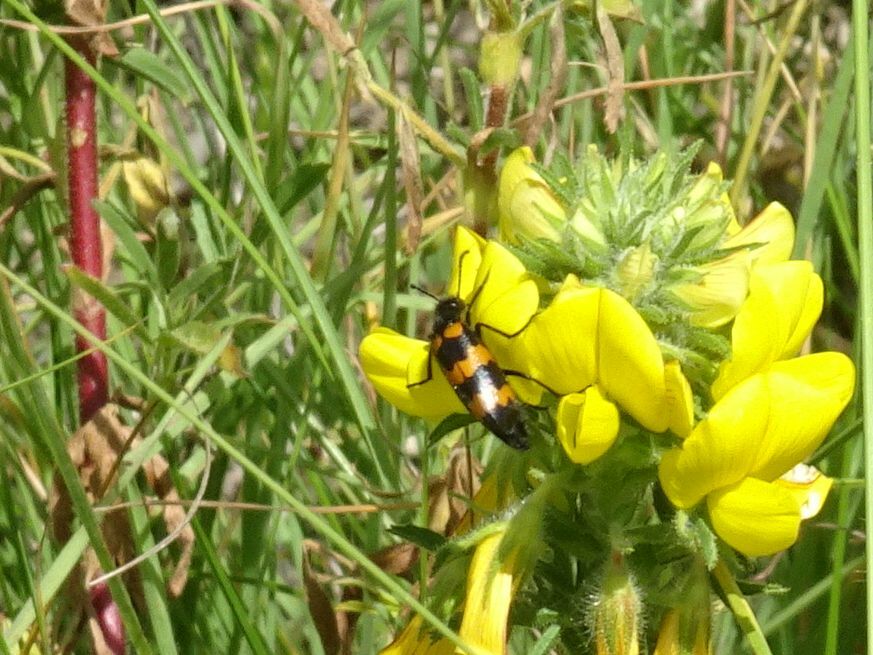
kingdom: Animalia
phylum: Arthropoda
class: Insecta
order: Coleoptera
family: Meloidae
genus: Mylabris
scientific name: Mylabris variabilis
